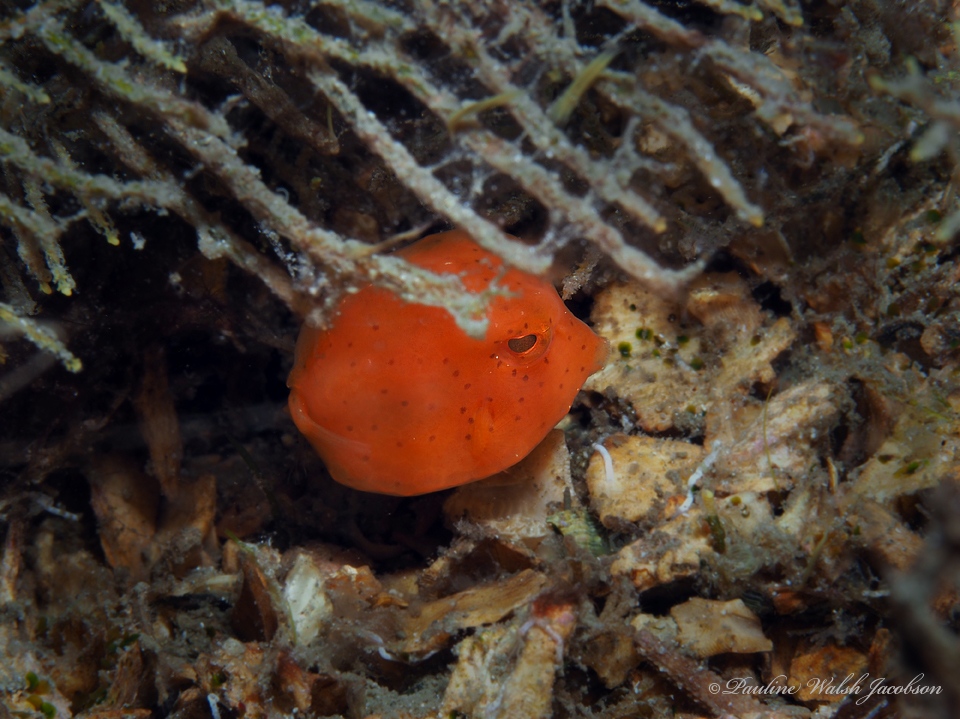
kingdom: Animalia
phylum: Chordata
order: Tetraodontiformes
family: Ostraciidae
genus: Lactophrys
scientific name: Lactophrys trigonus
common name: Buffalo trunkfish
